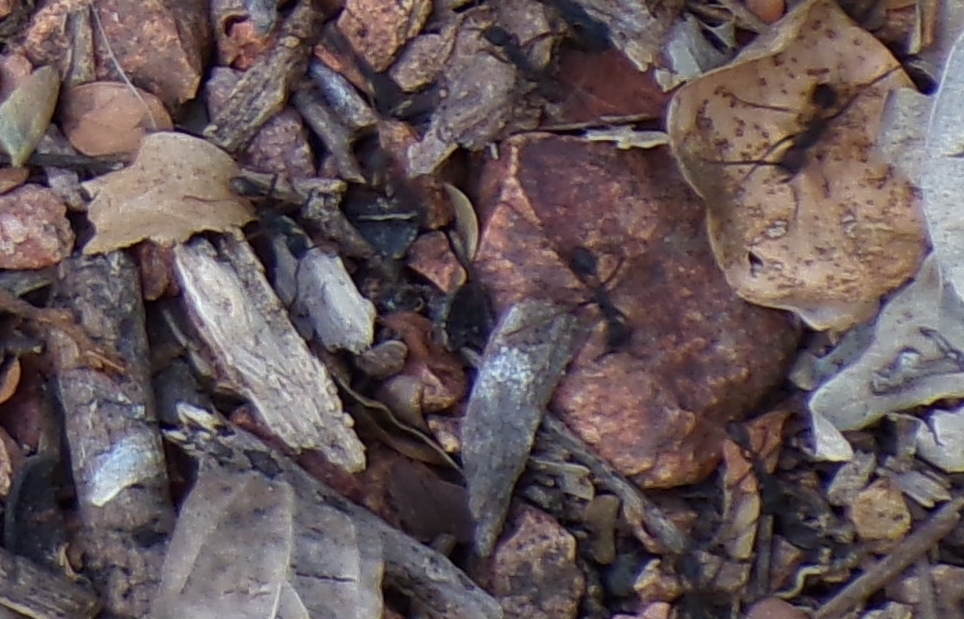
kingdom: Animalia
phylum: Arthropoda
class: Insecta
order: Hymenoptera
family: Formicidae
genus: Eciton
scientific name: Eciton burchellii
